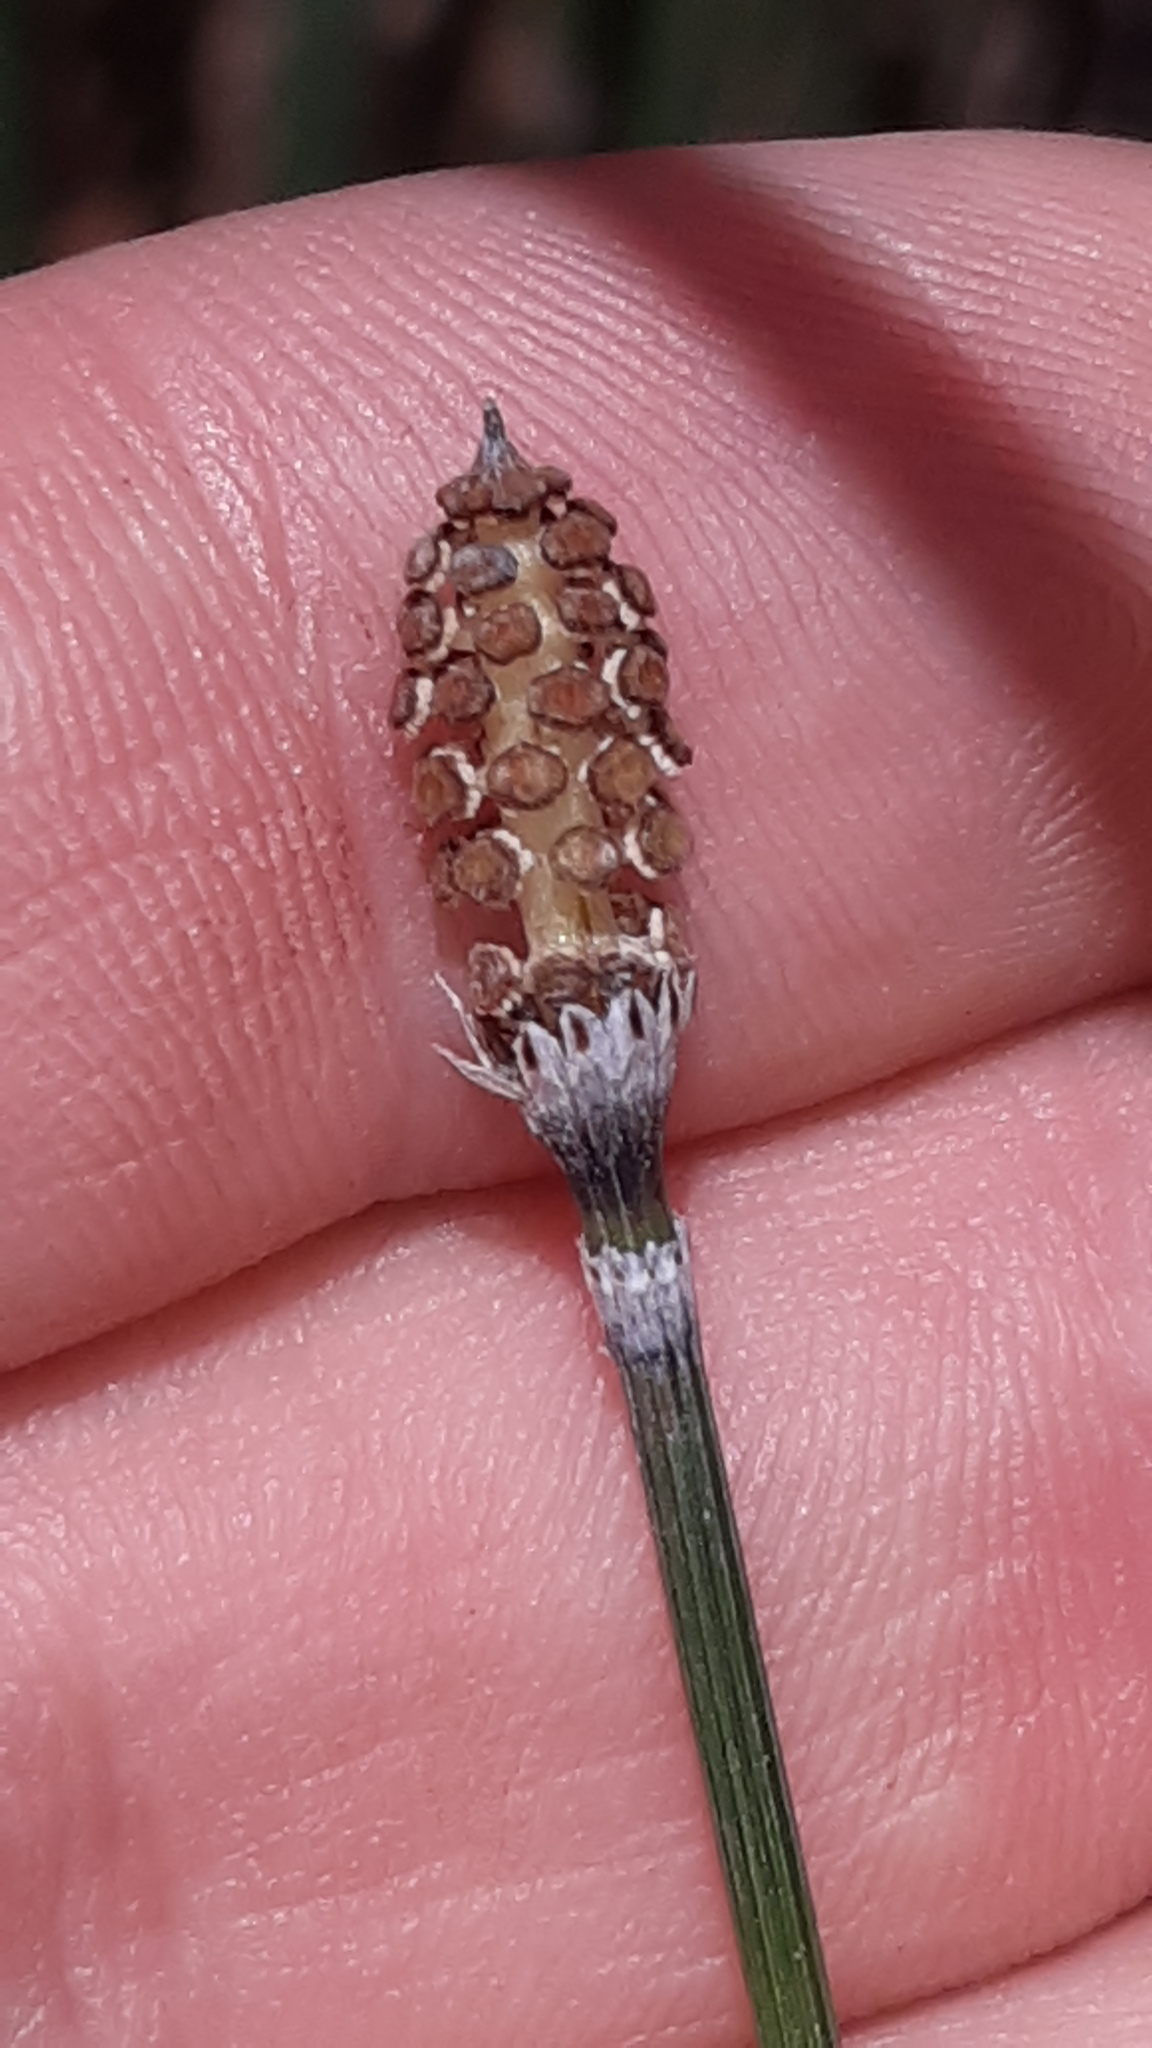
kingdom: Plantae
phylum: Tracheophyta
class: Polypodiopsida
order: Equisetales
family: Equisetaceae
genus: Equisetum
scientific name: Equisetum hyemale
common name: Rough horsetail
